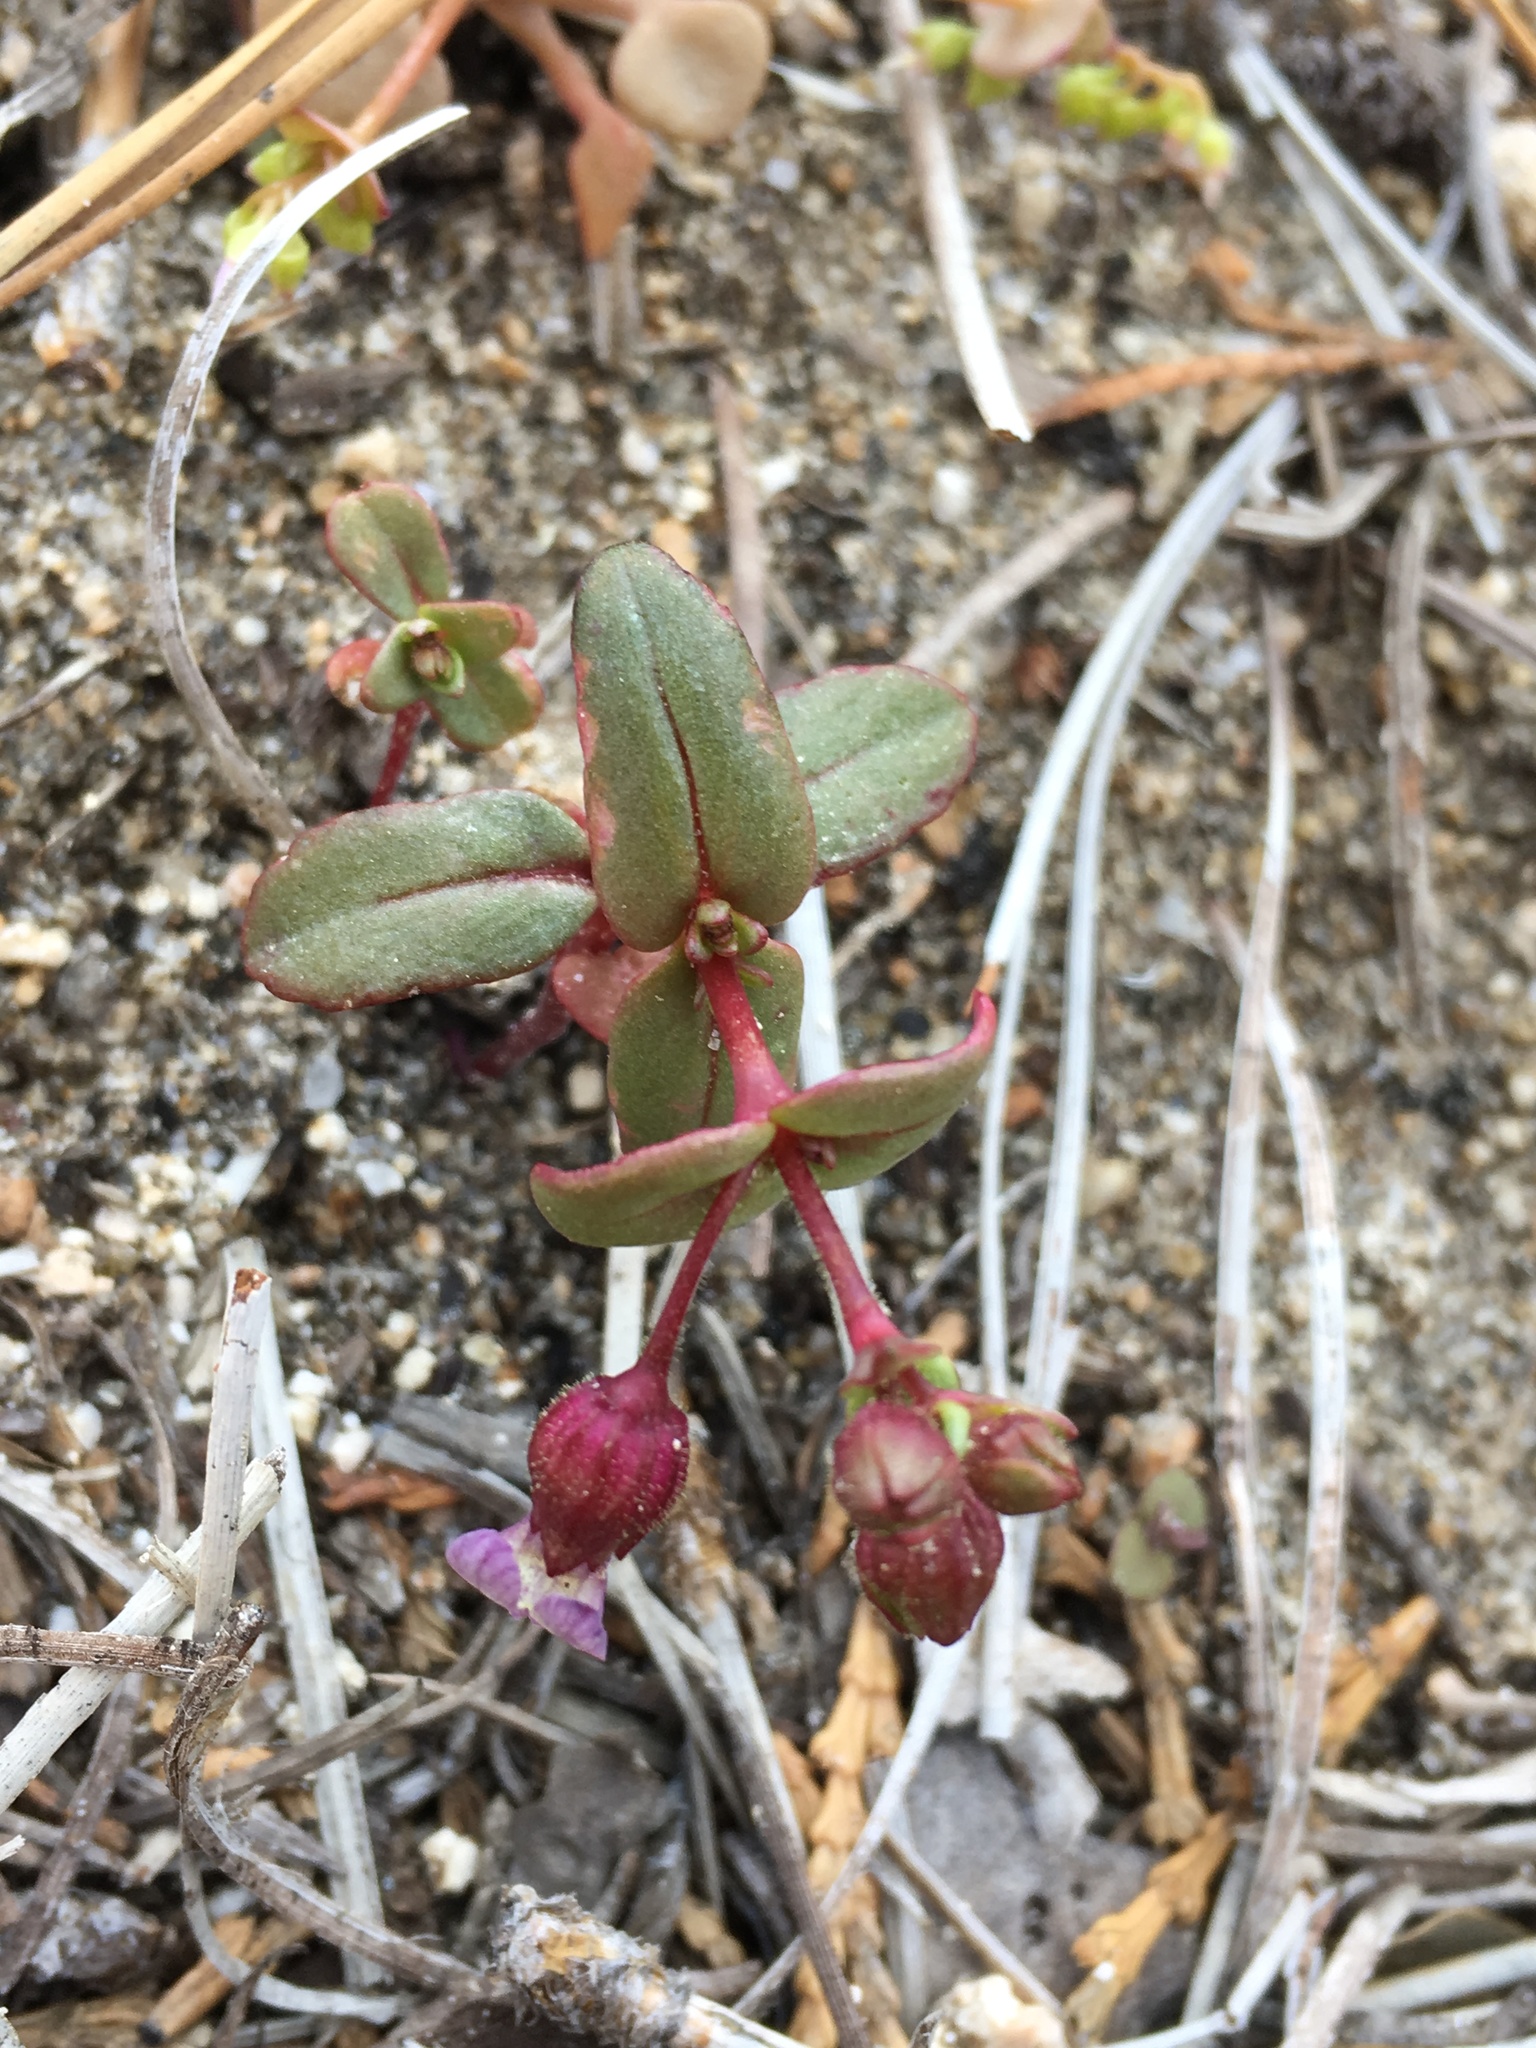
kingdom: Plantae
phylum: Tracheophyta
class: Magnoliopsida
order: Lamiales
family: Plantaginaceae
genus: Collinsia
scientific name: Collinsia callosa
